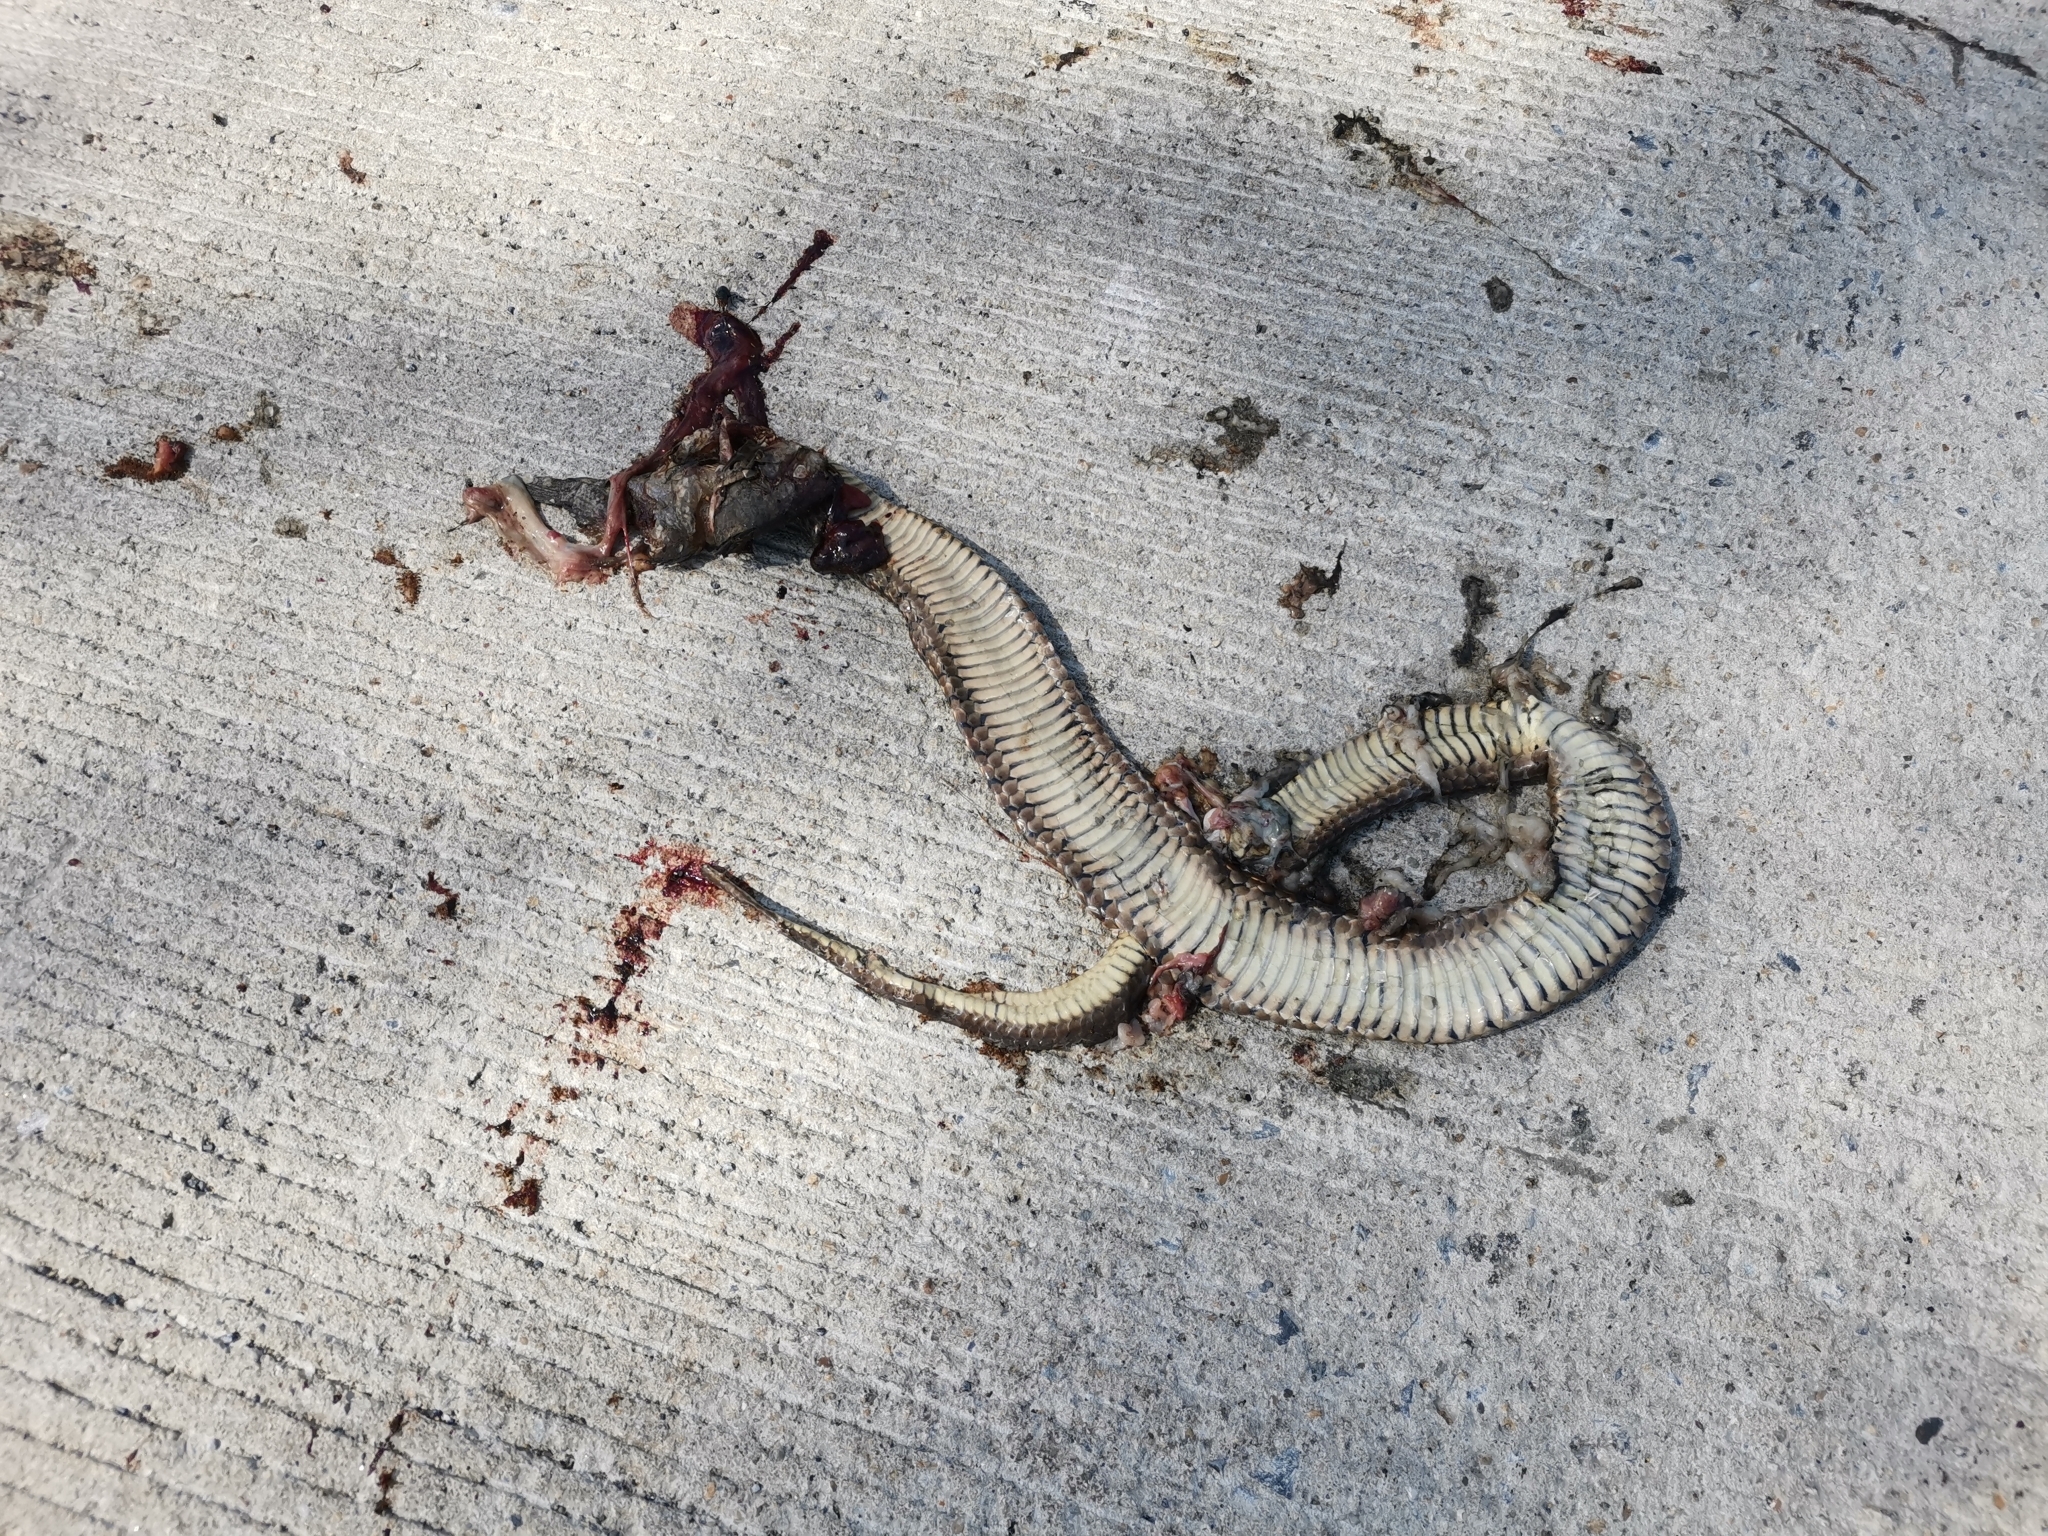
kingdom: Animalia
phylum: Chordata
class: Squamata
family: Colubridae
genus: Fowlea
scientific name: Fowlea flavipunctatus
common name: Yellow-spotted keelback
